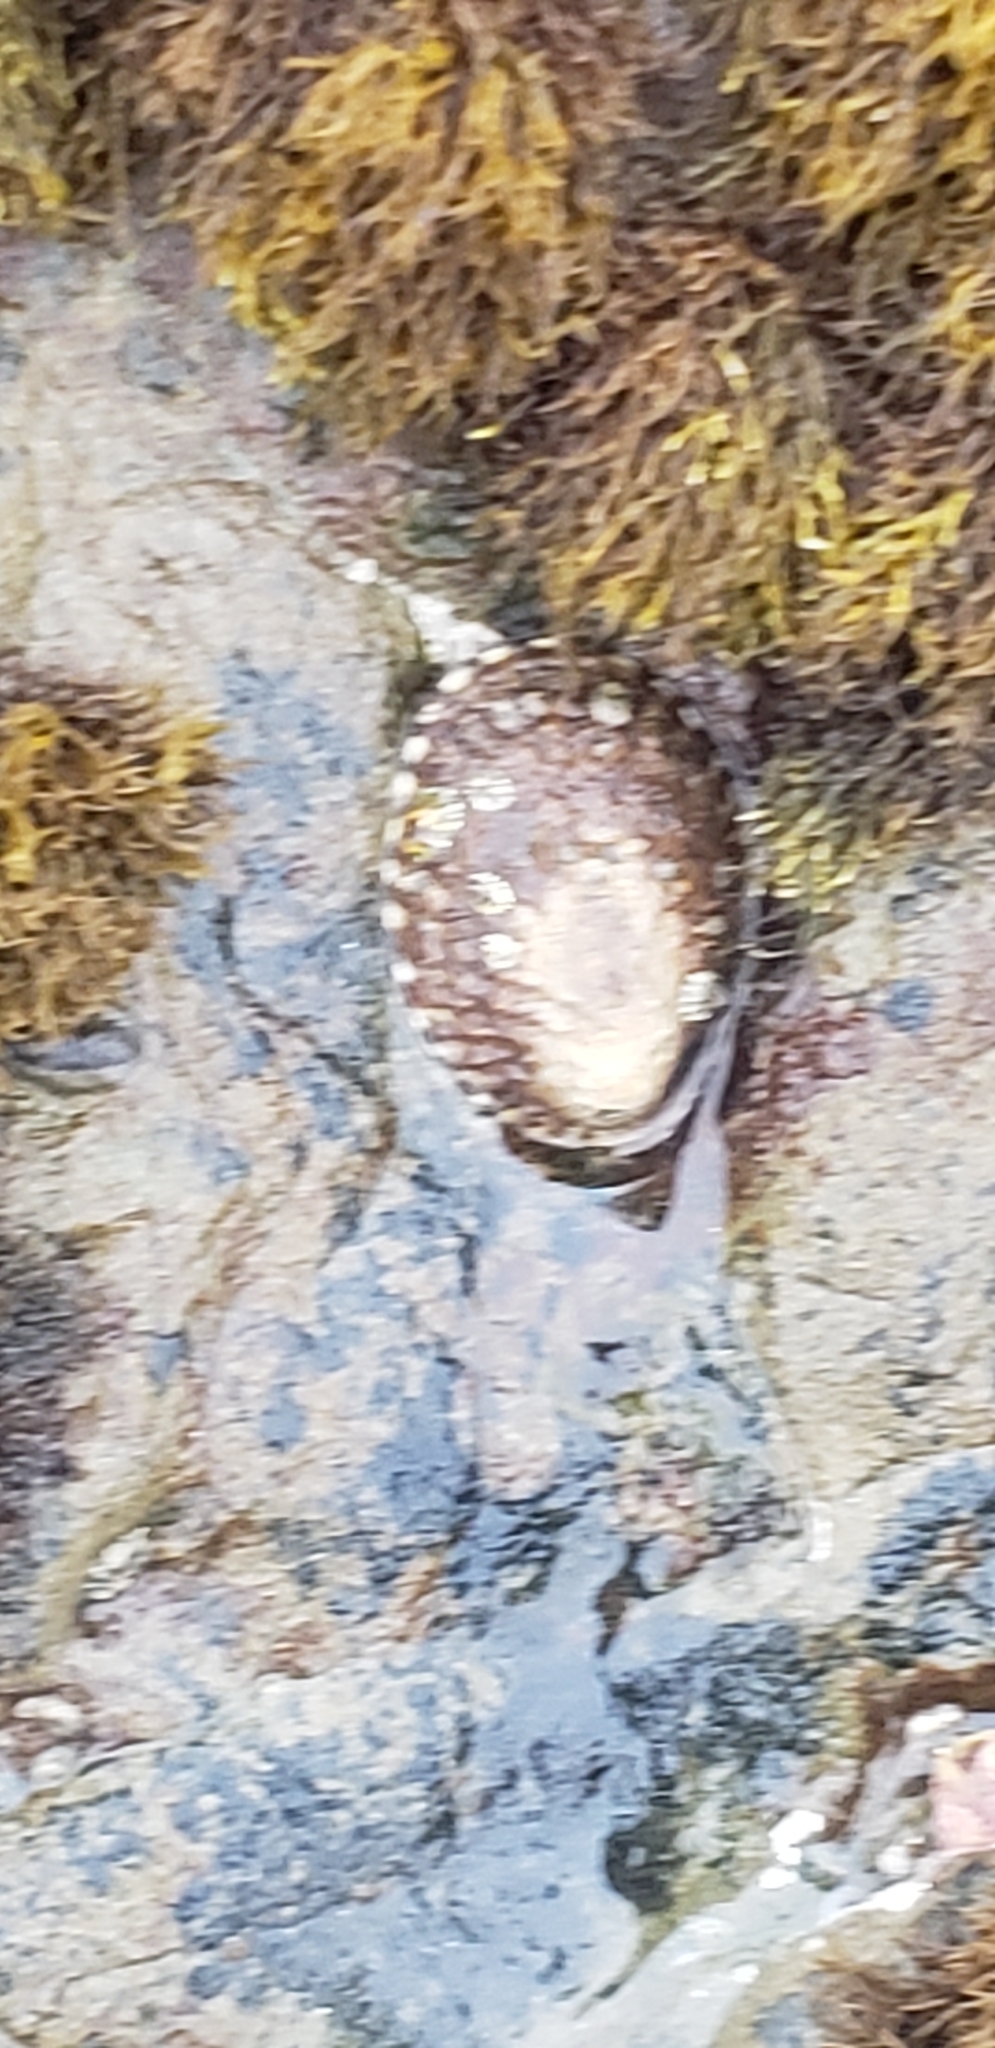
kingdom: Animalia
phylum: Mollusca
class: Gastropoda
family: Lottiidae
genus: Lottia
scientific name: Lottia gigantea
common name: Owl limpet
